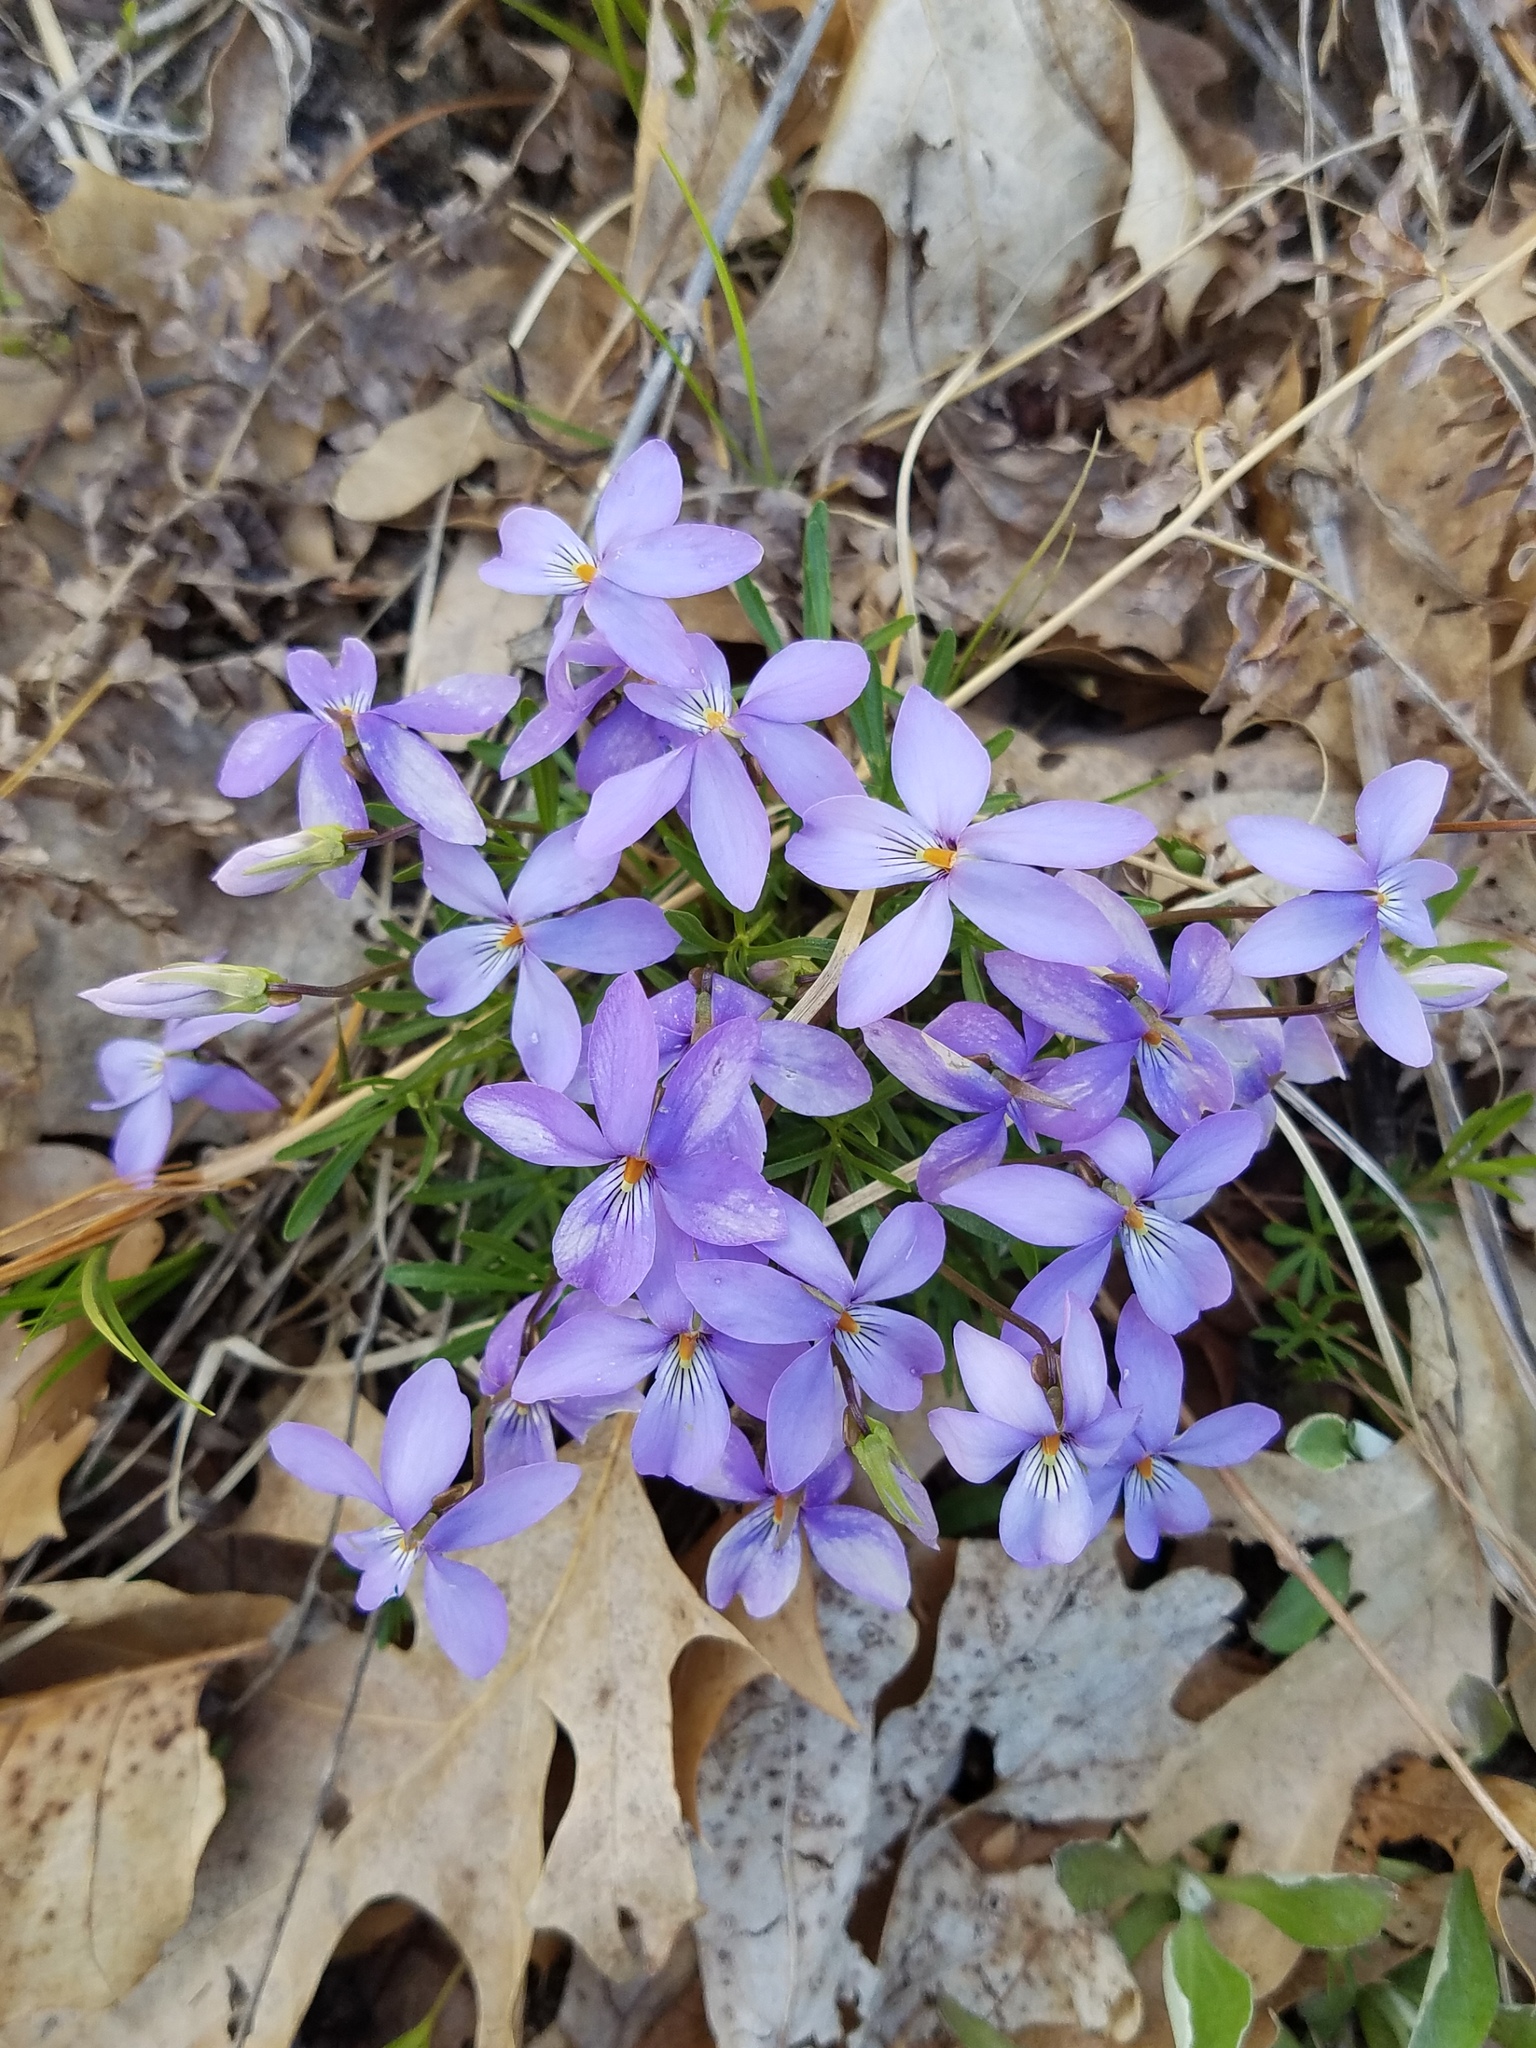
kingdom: Plantae
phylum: Tracheophyta
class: Magnoliopsida
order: Malpighiales
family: Violaceae
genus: Viola
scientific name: Viola pedata
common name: Pansy violet
